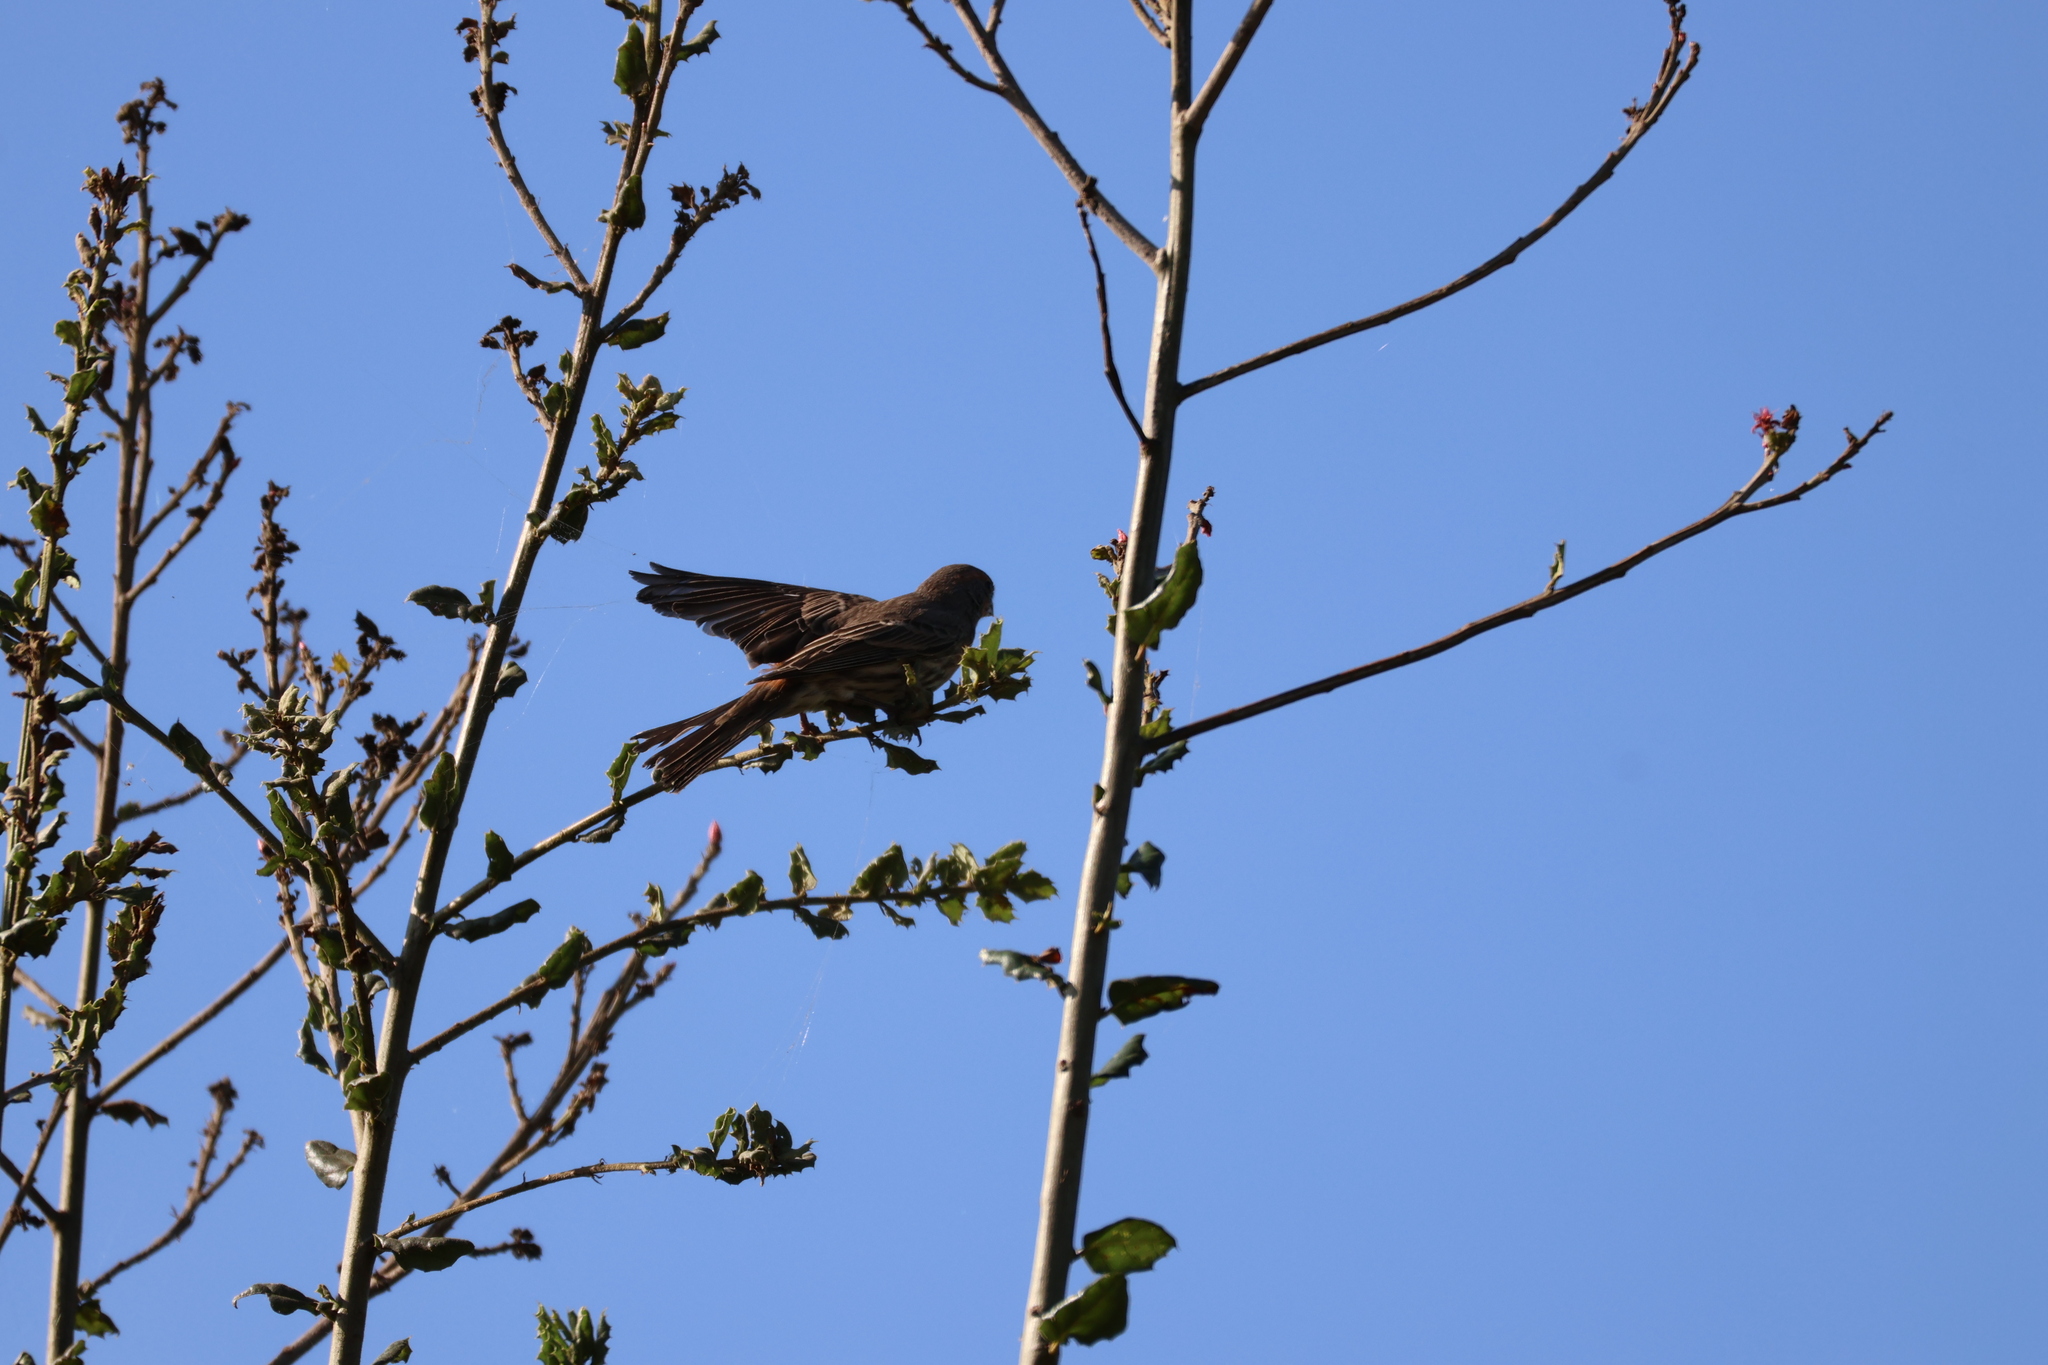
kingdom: Animalia
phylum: Chordata
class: Aves
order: Passeriformes
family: Fringillidae
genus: Haemorhous
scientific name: Haemorhous mexicanus
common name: House finch
